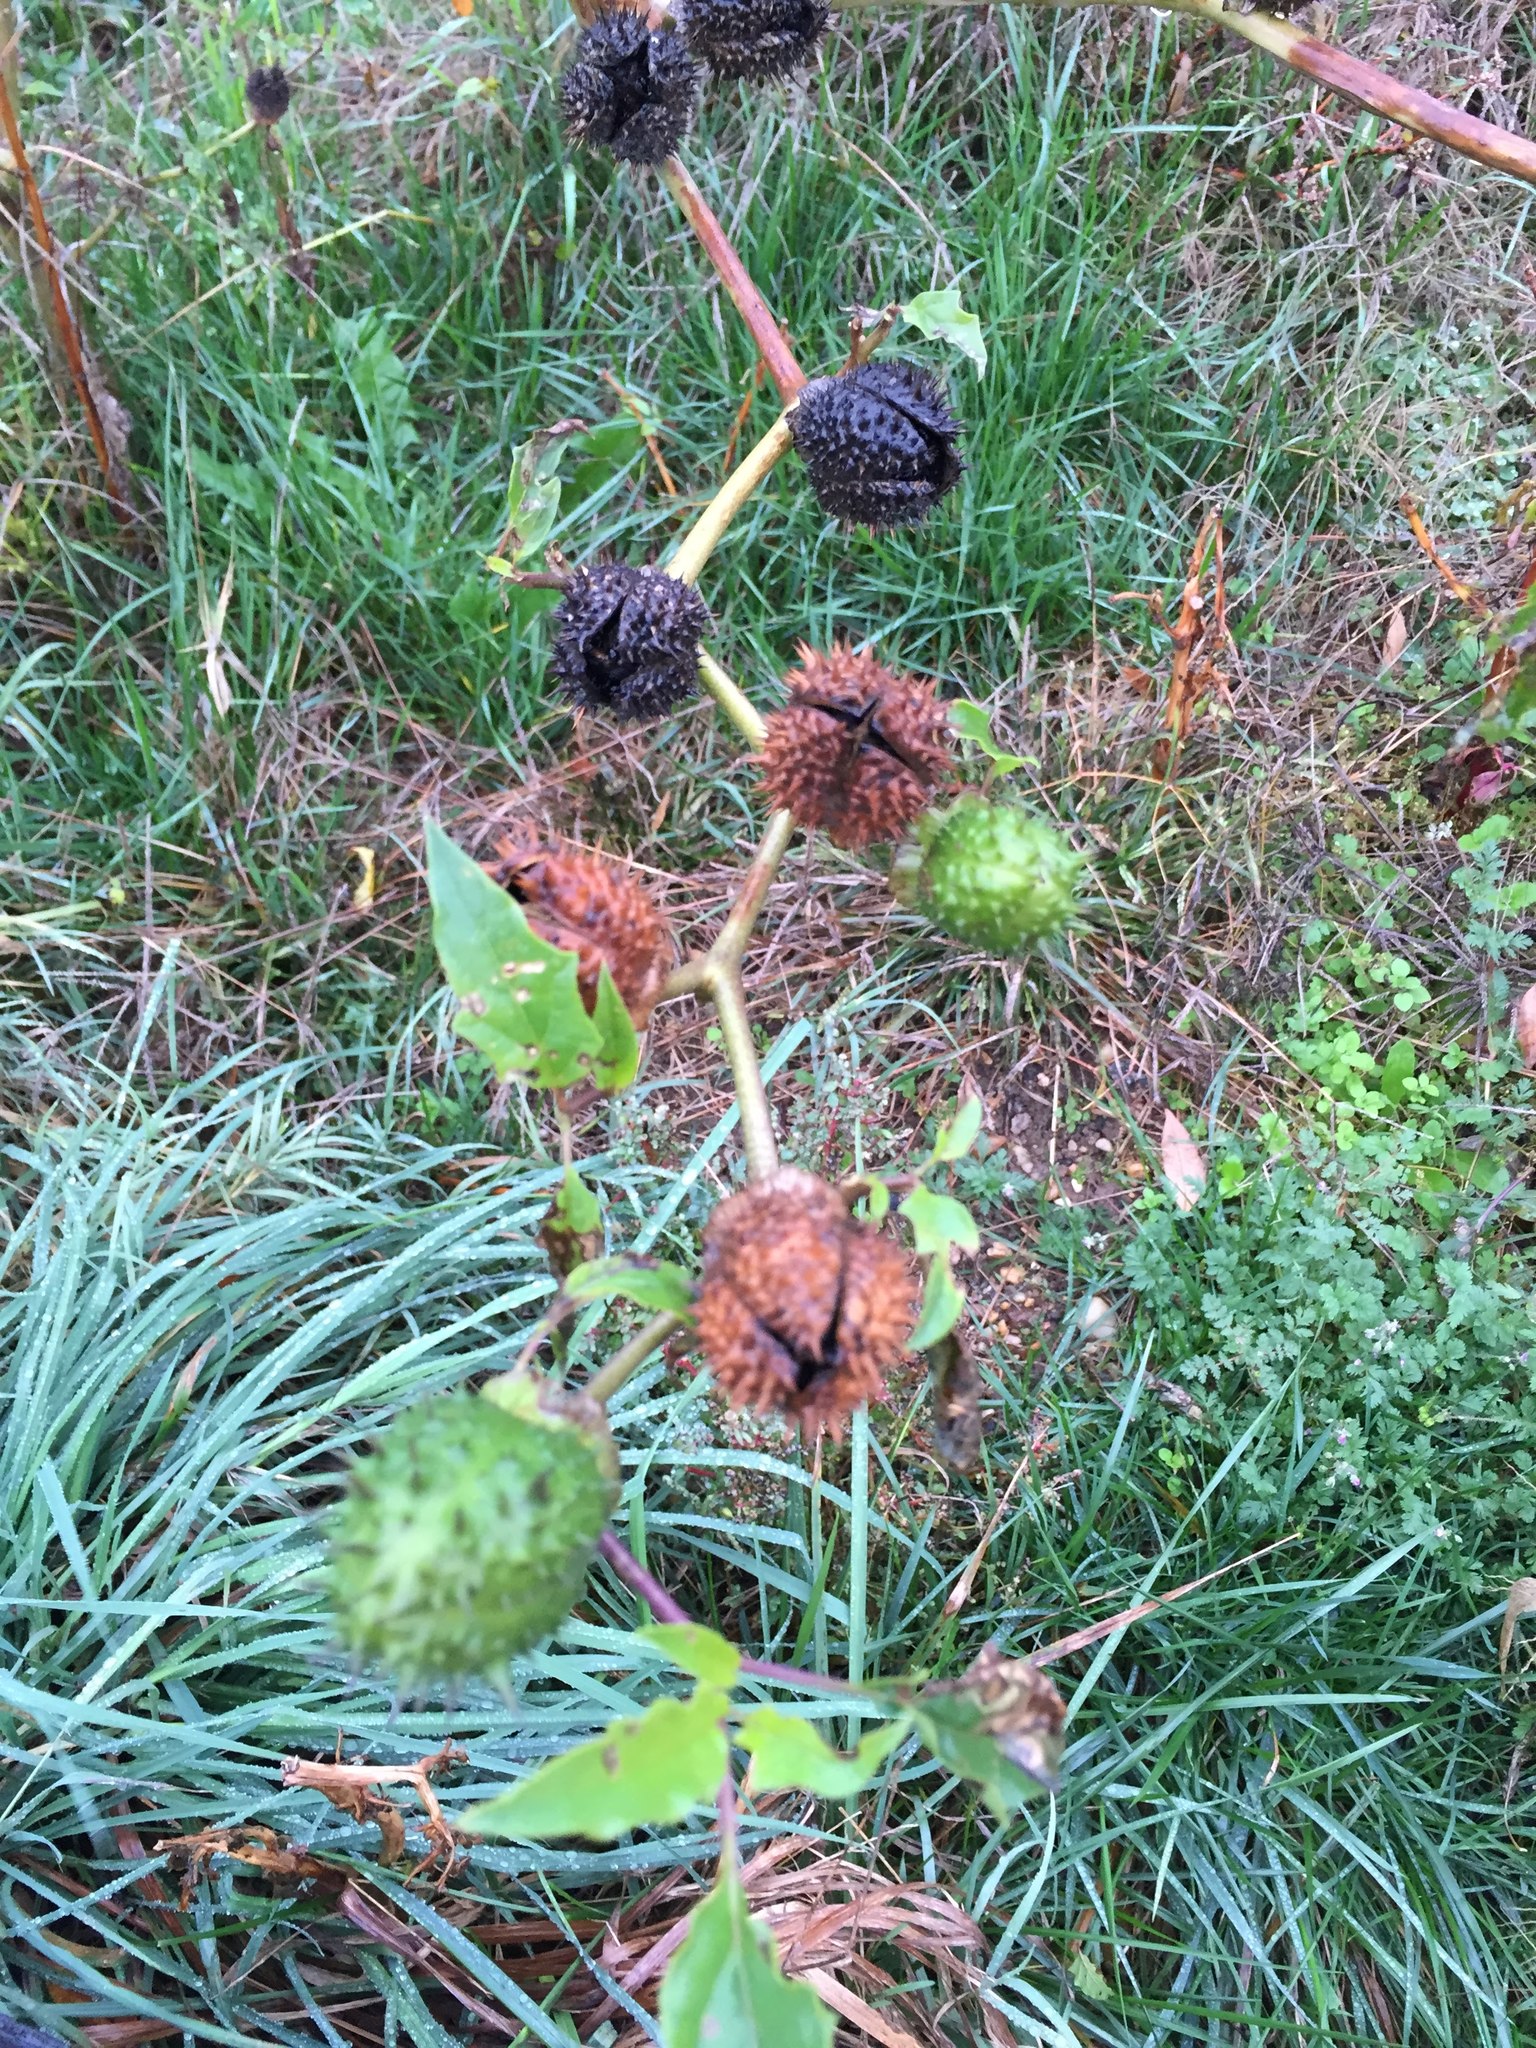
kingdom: Plantae
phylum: Tracheophyta
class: Magnoliopsida
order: Solanales
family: Solanaceae
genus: Datura
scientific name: Datura stramonium
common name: Thorn-apple
